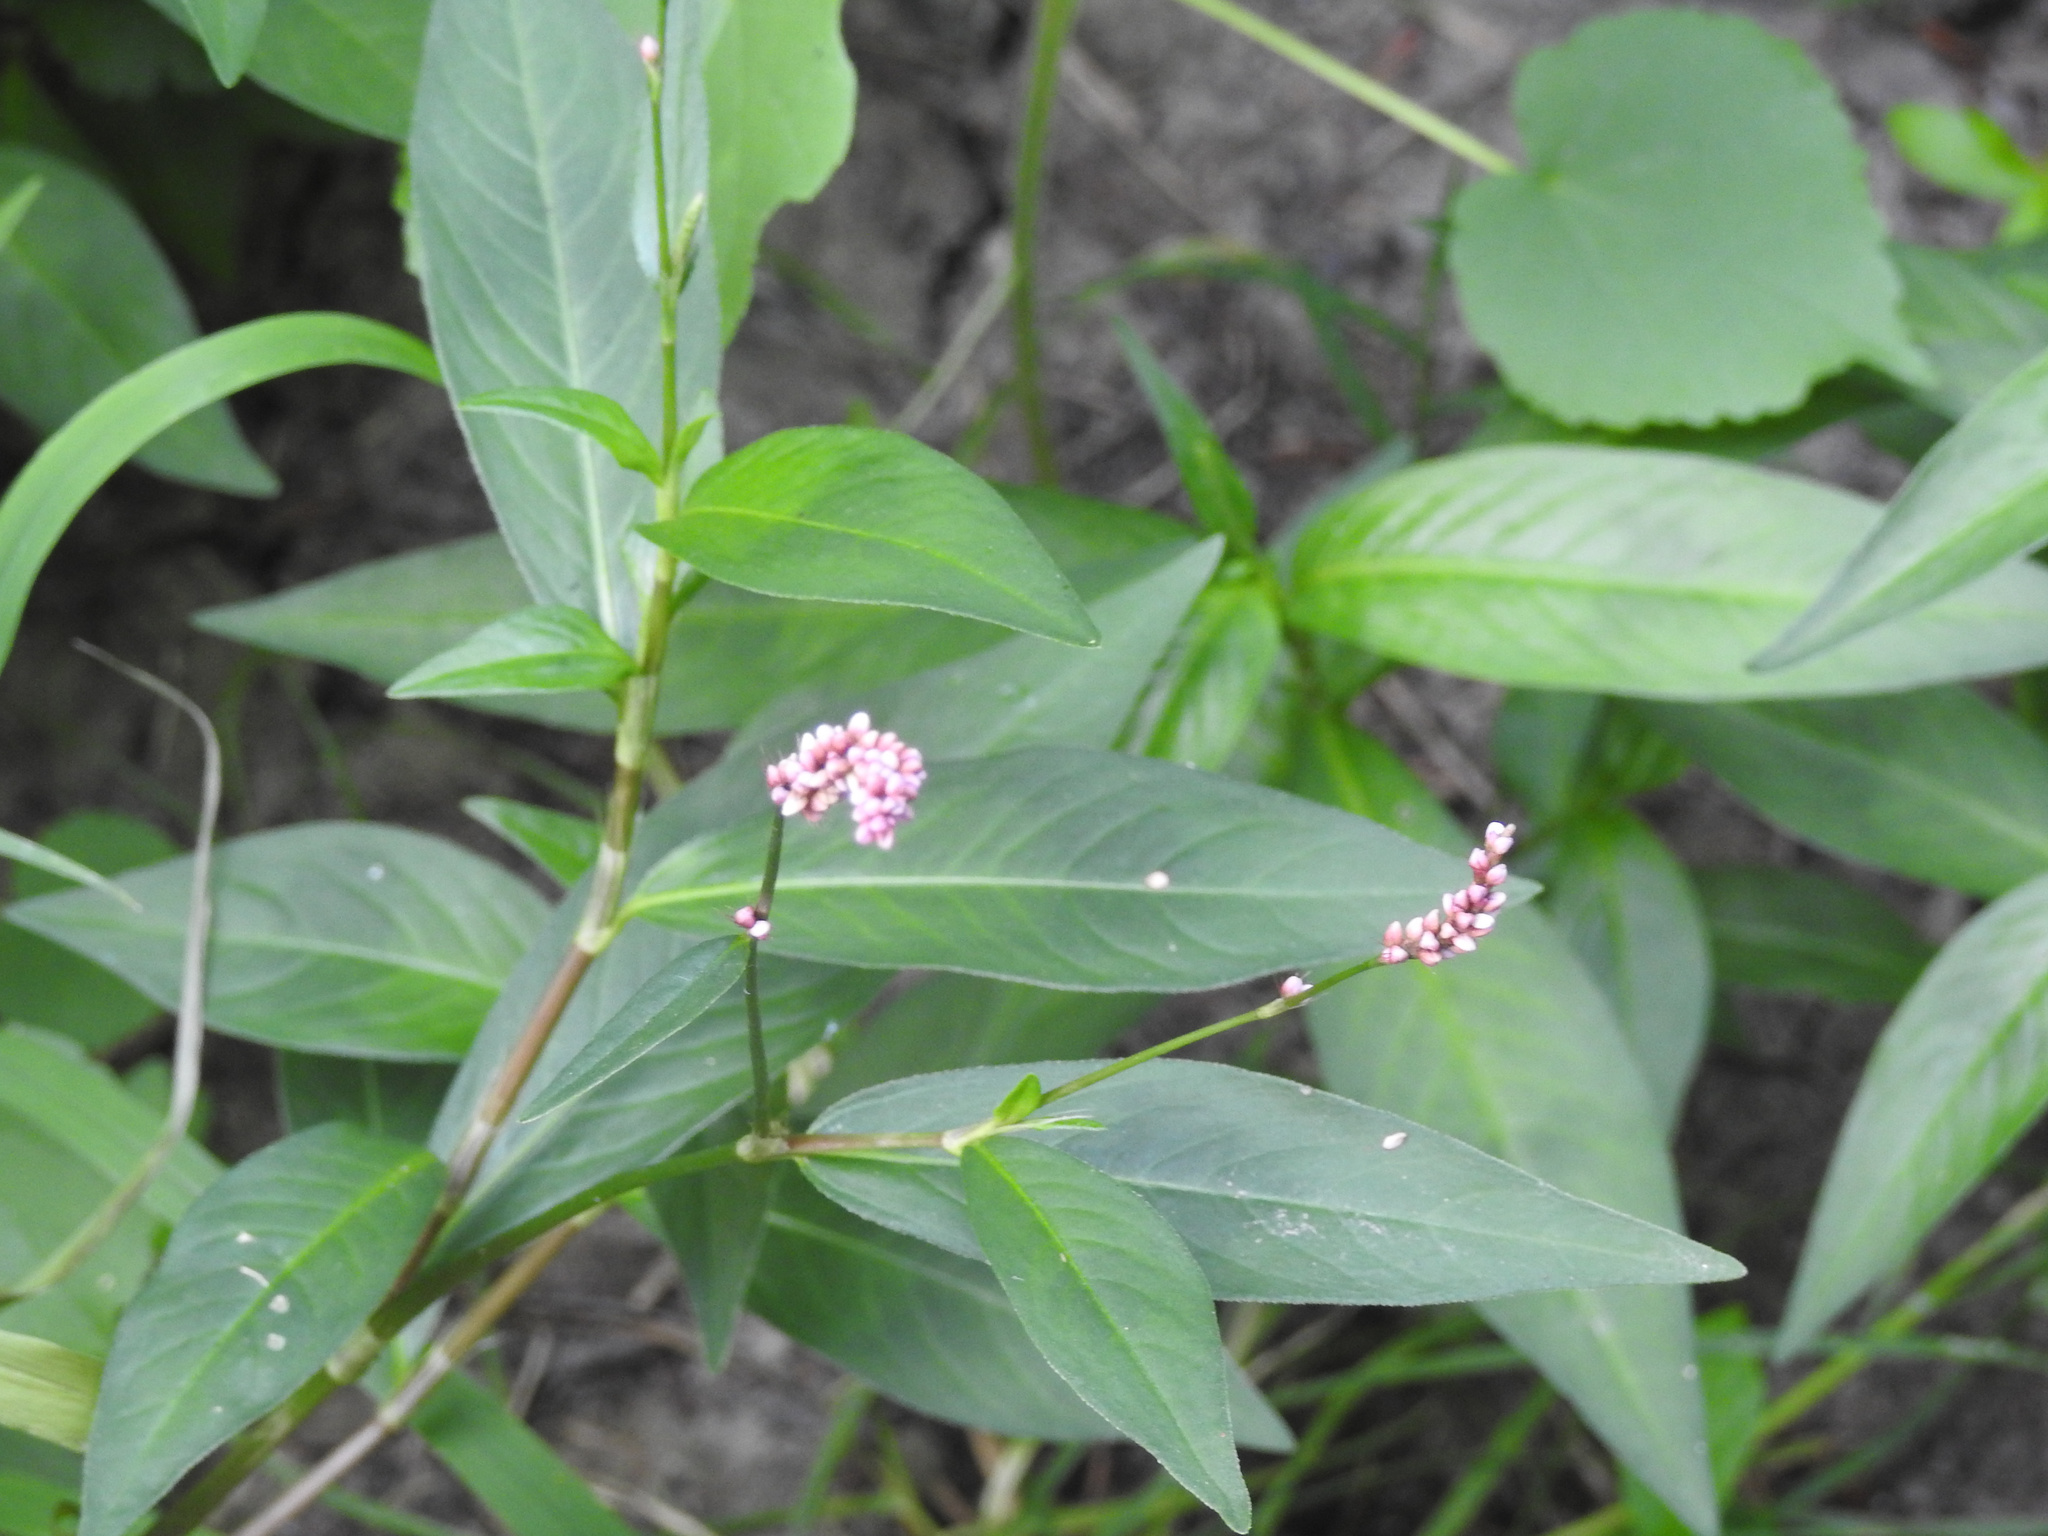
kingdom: Plantae
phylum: Tracheophyta
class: Magnoliopsida
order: Caryophyllales
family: Polygonaceae
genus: Persicaria
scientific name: Persicaria longiseta
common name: Bristly lady's-thumb
